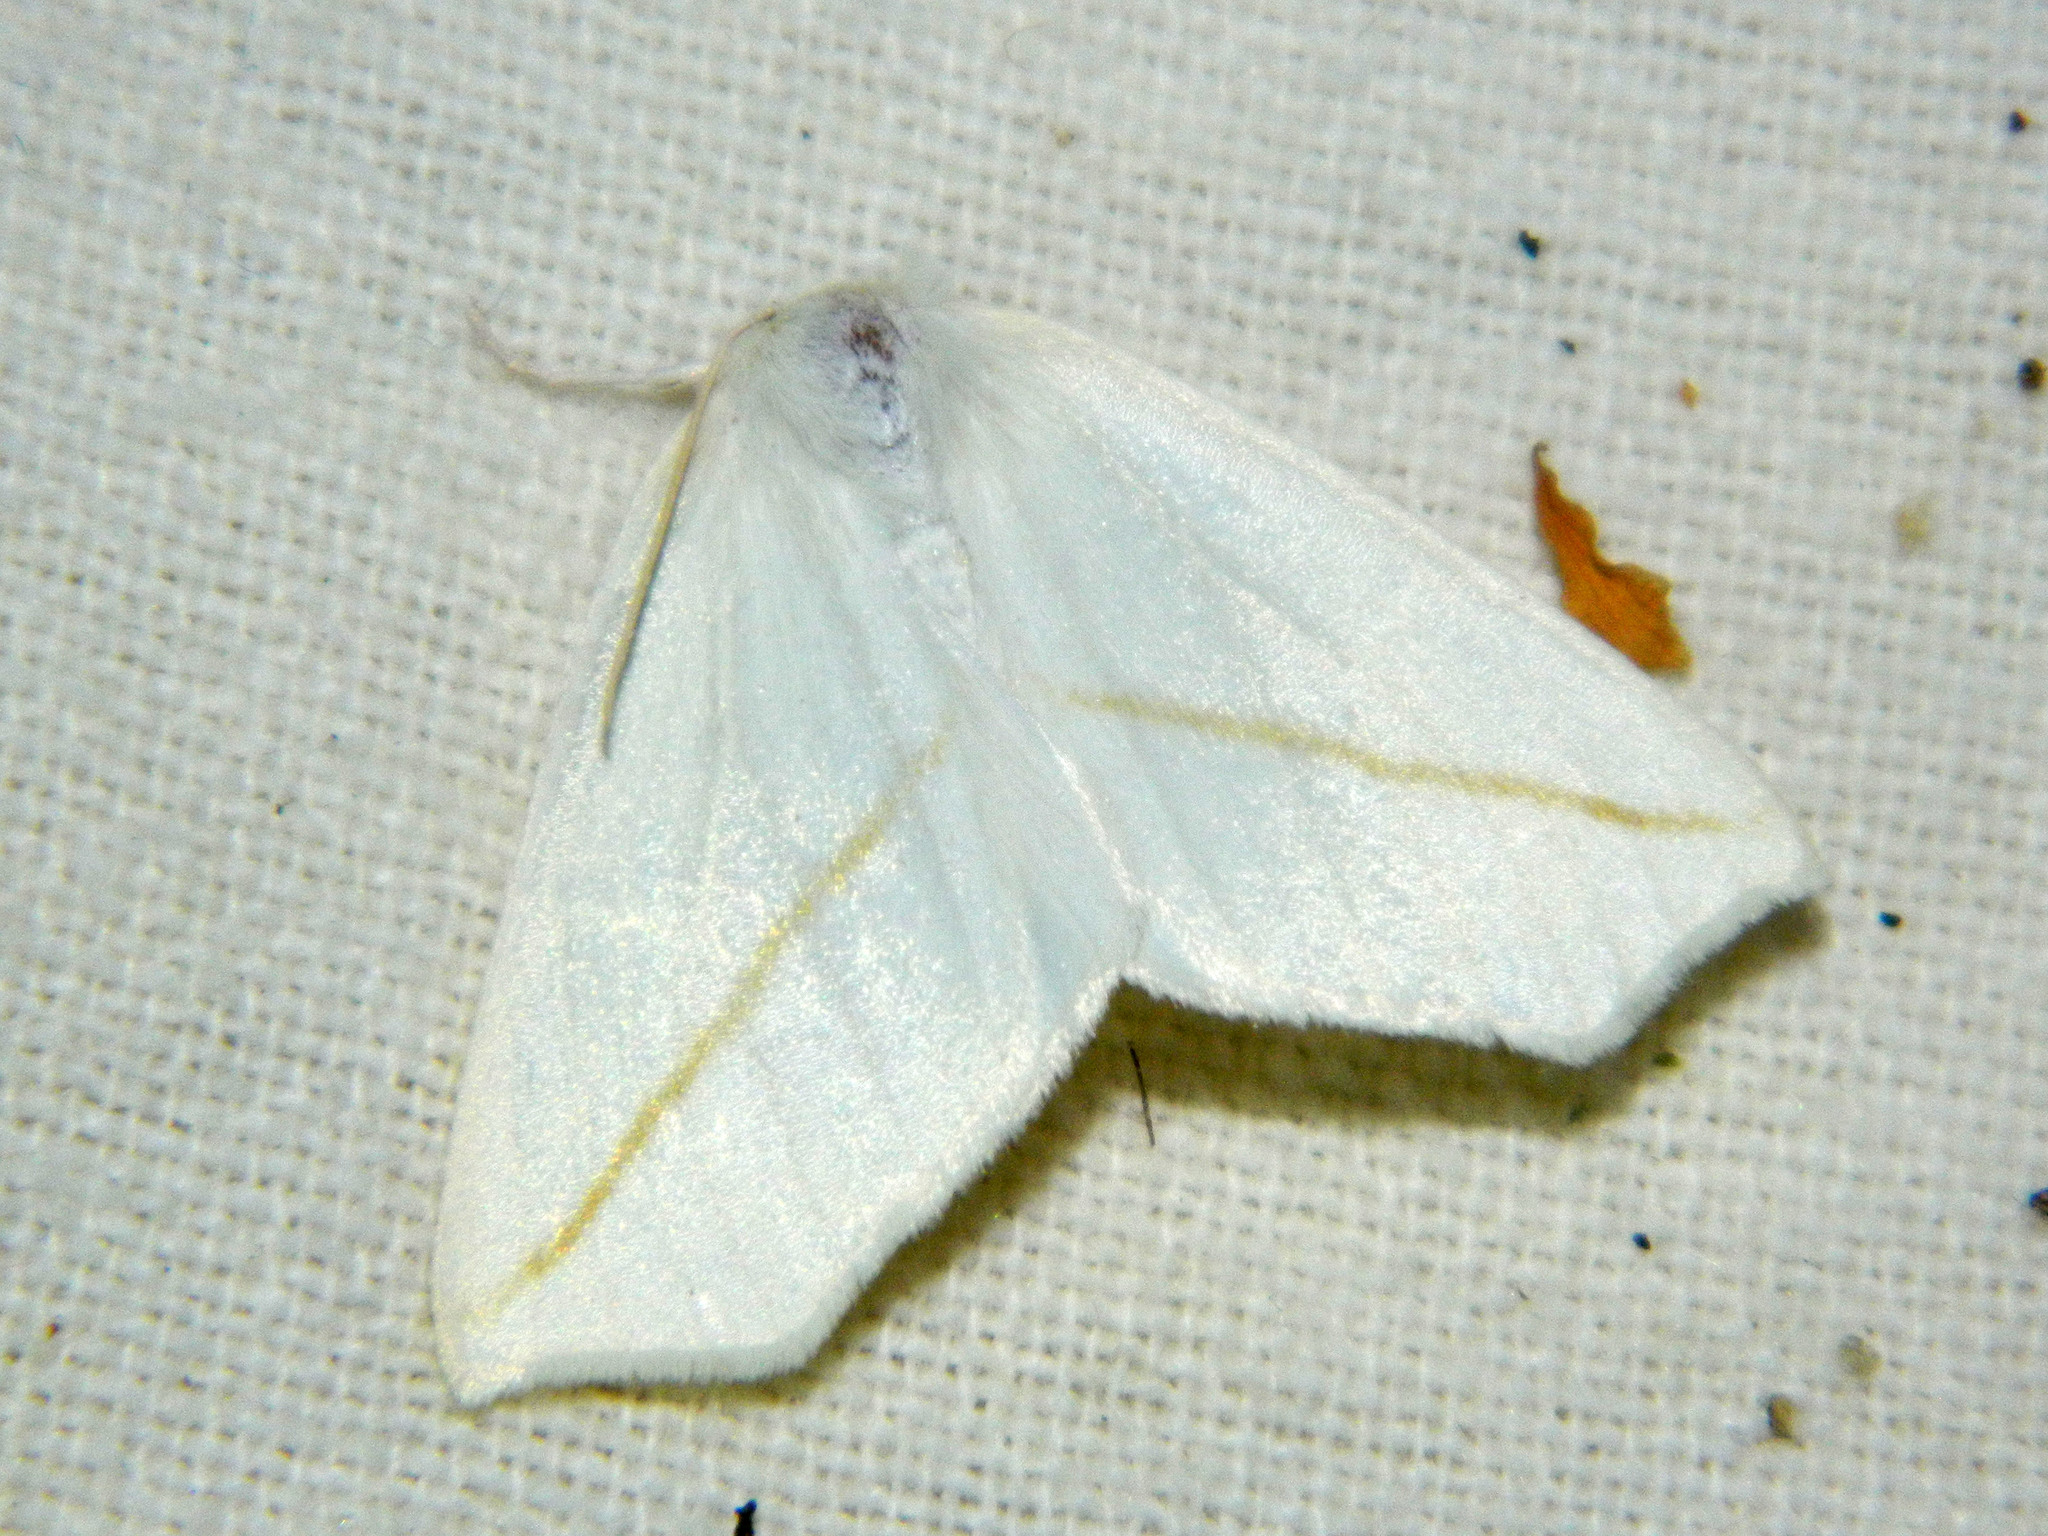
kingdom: Animalia
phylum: Arthropoda
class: Insecta
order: Lepidoptera
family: Geometridae
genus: Tetracis
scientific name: Tetracis cachexiata
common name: White slant-line
